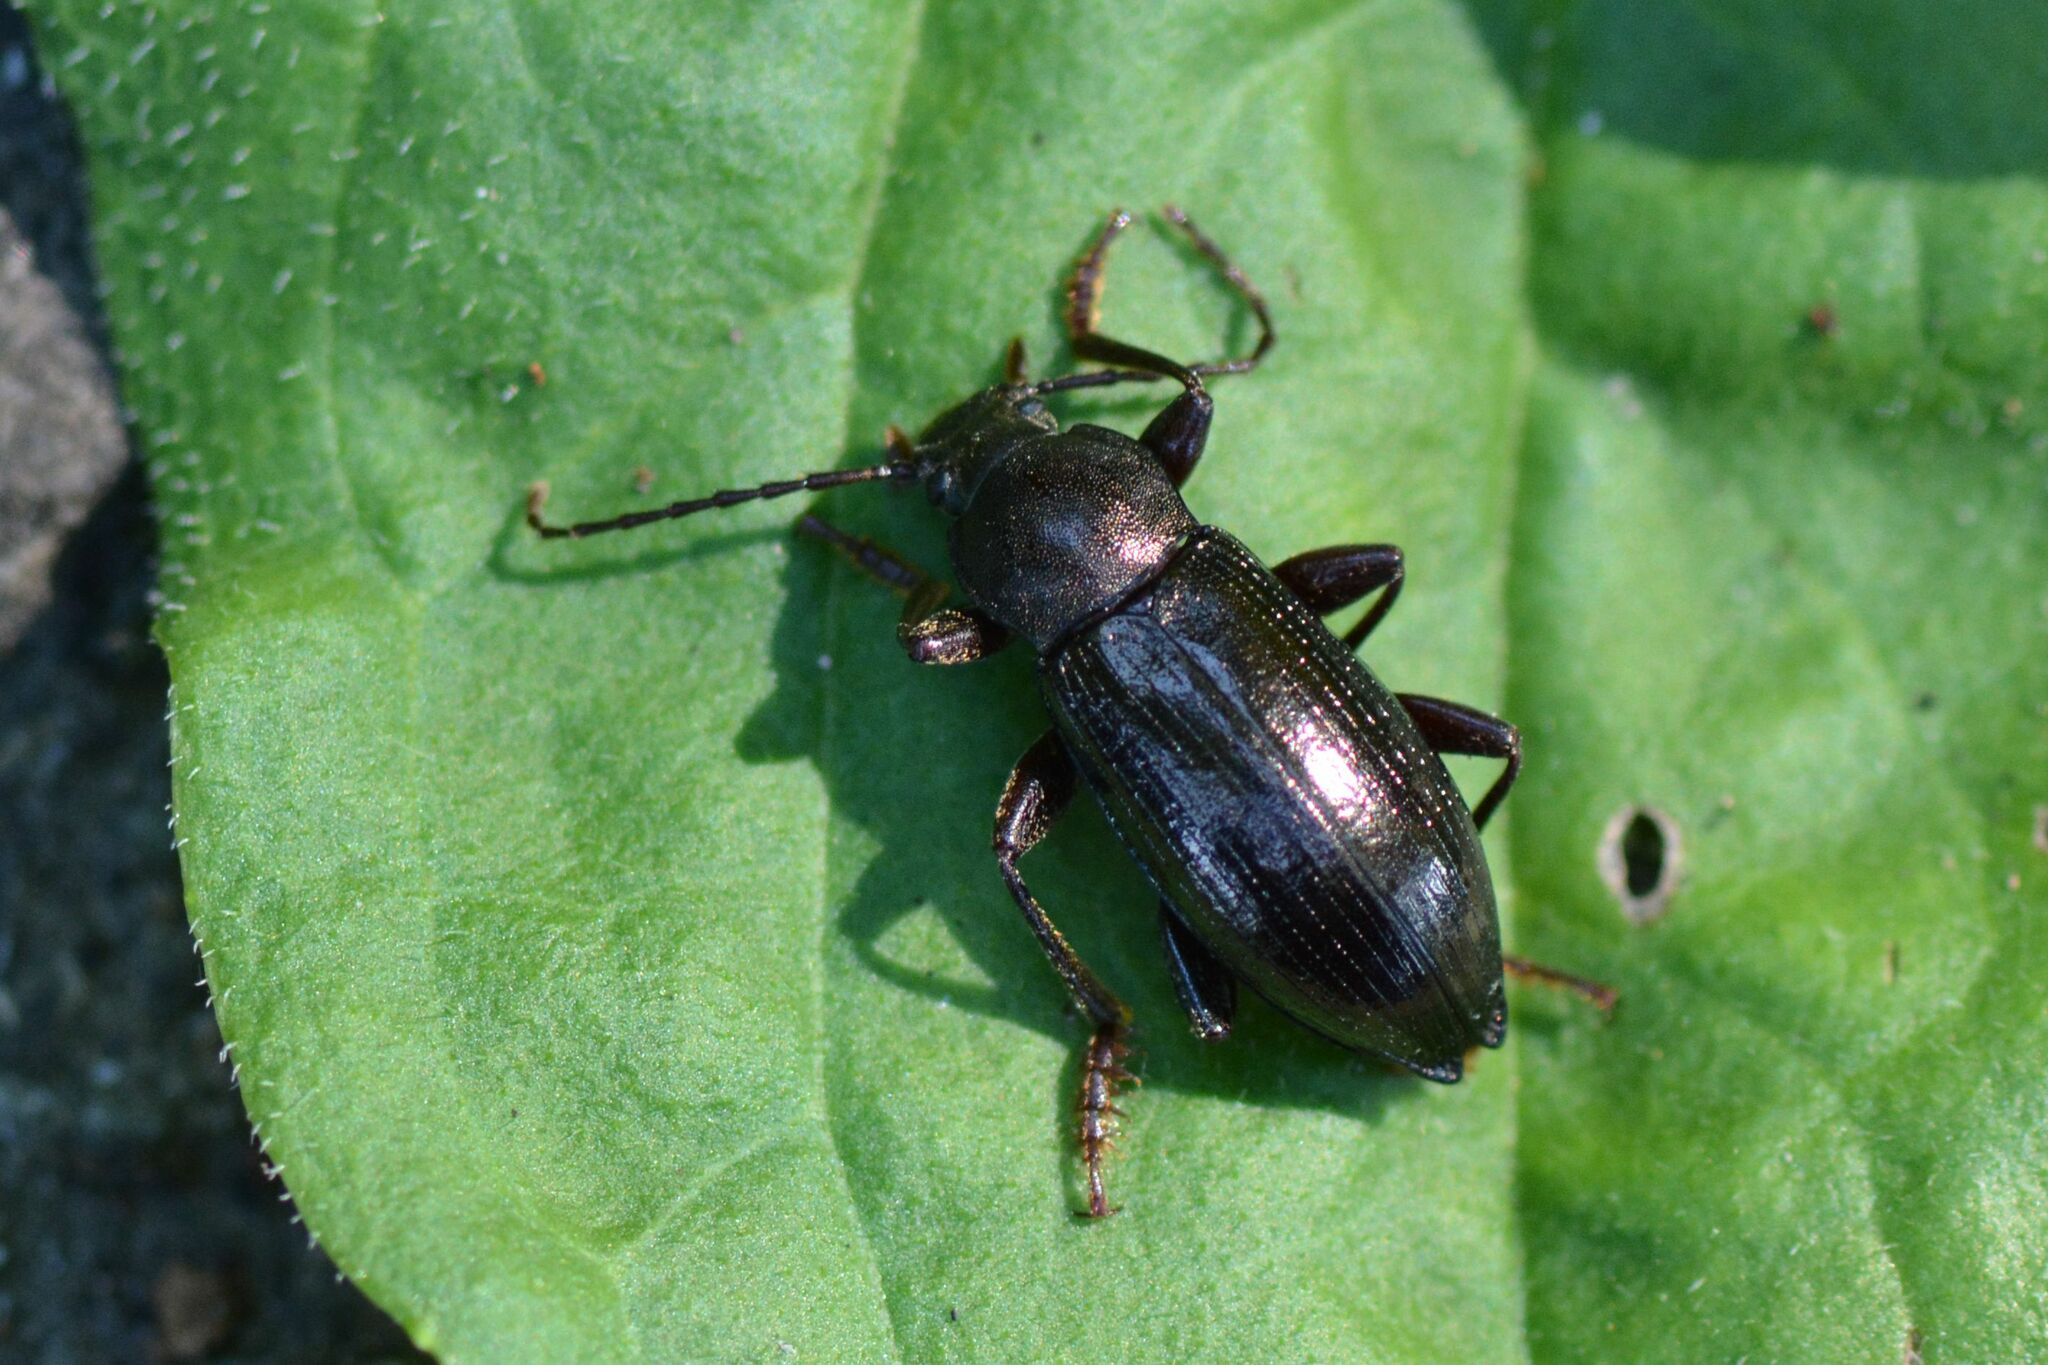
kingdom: Animalia
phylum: Arthropoda
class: Insecta
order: Coleoptera
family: Tenebrionidae
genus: Stenomax
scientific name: Stenomax aeneus
